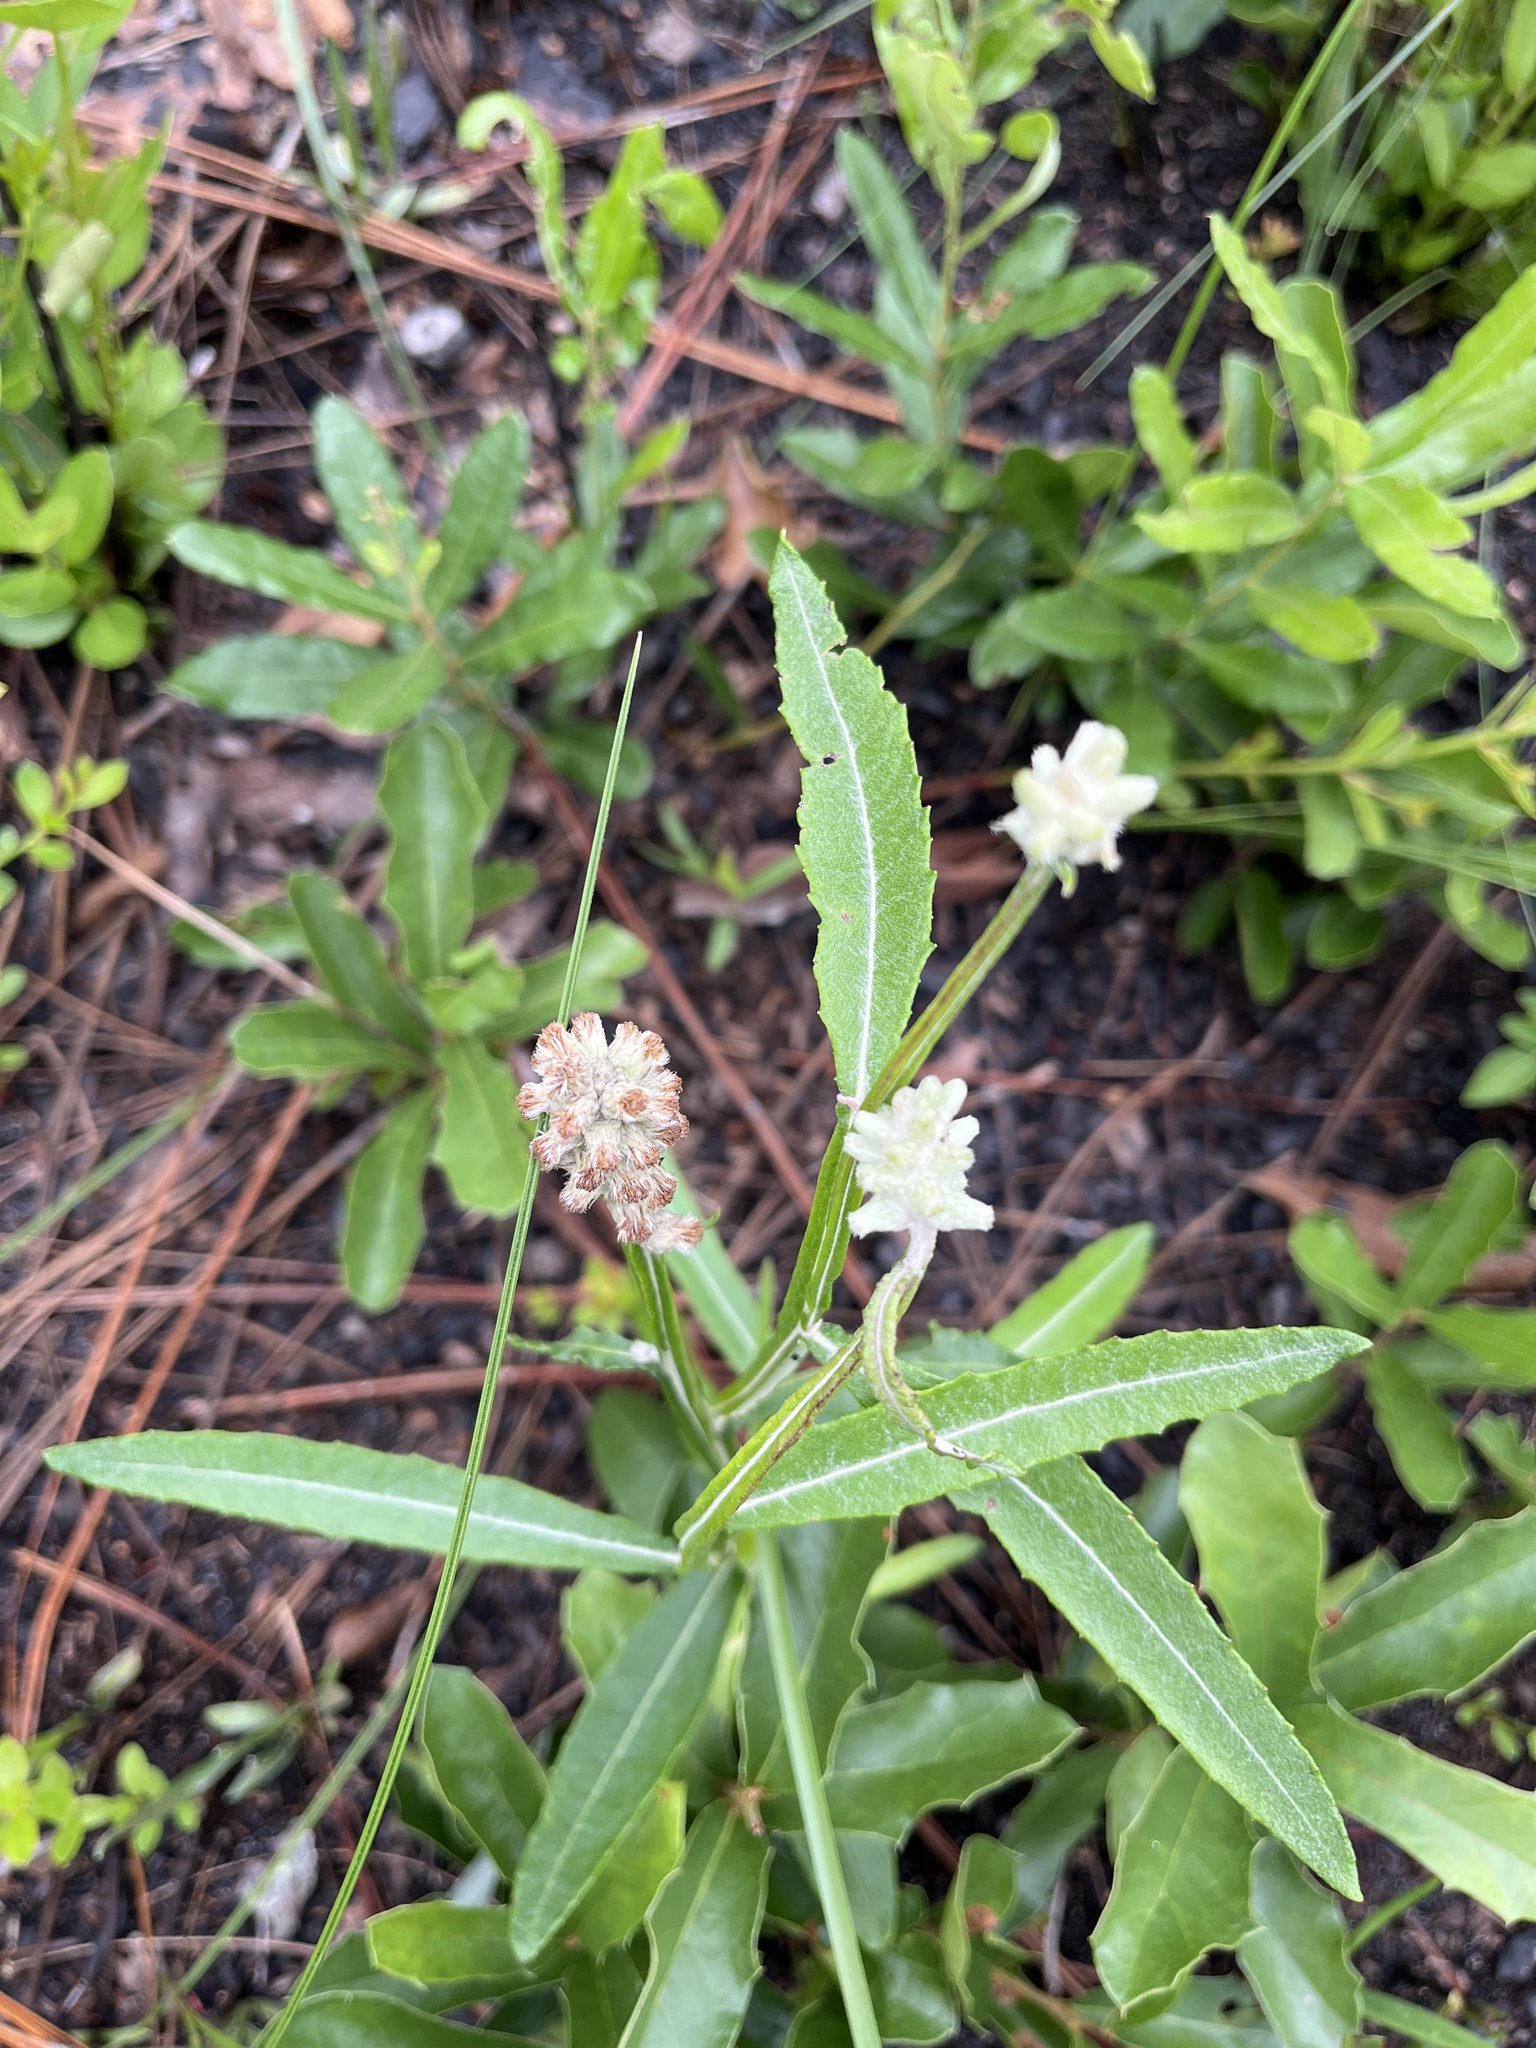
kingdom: Plantae
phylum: Tracheophyta
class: Magnoliopsida
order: Asterales
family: Asteraceae
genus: Pterocaulon
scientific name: Pterocaulon pycnostachyum
